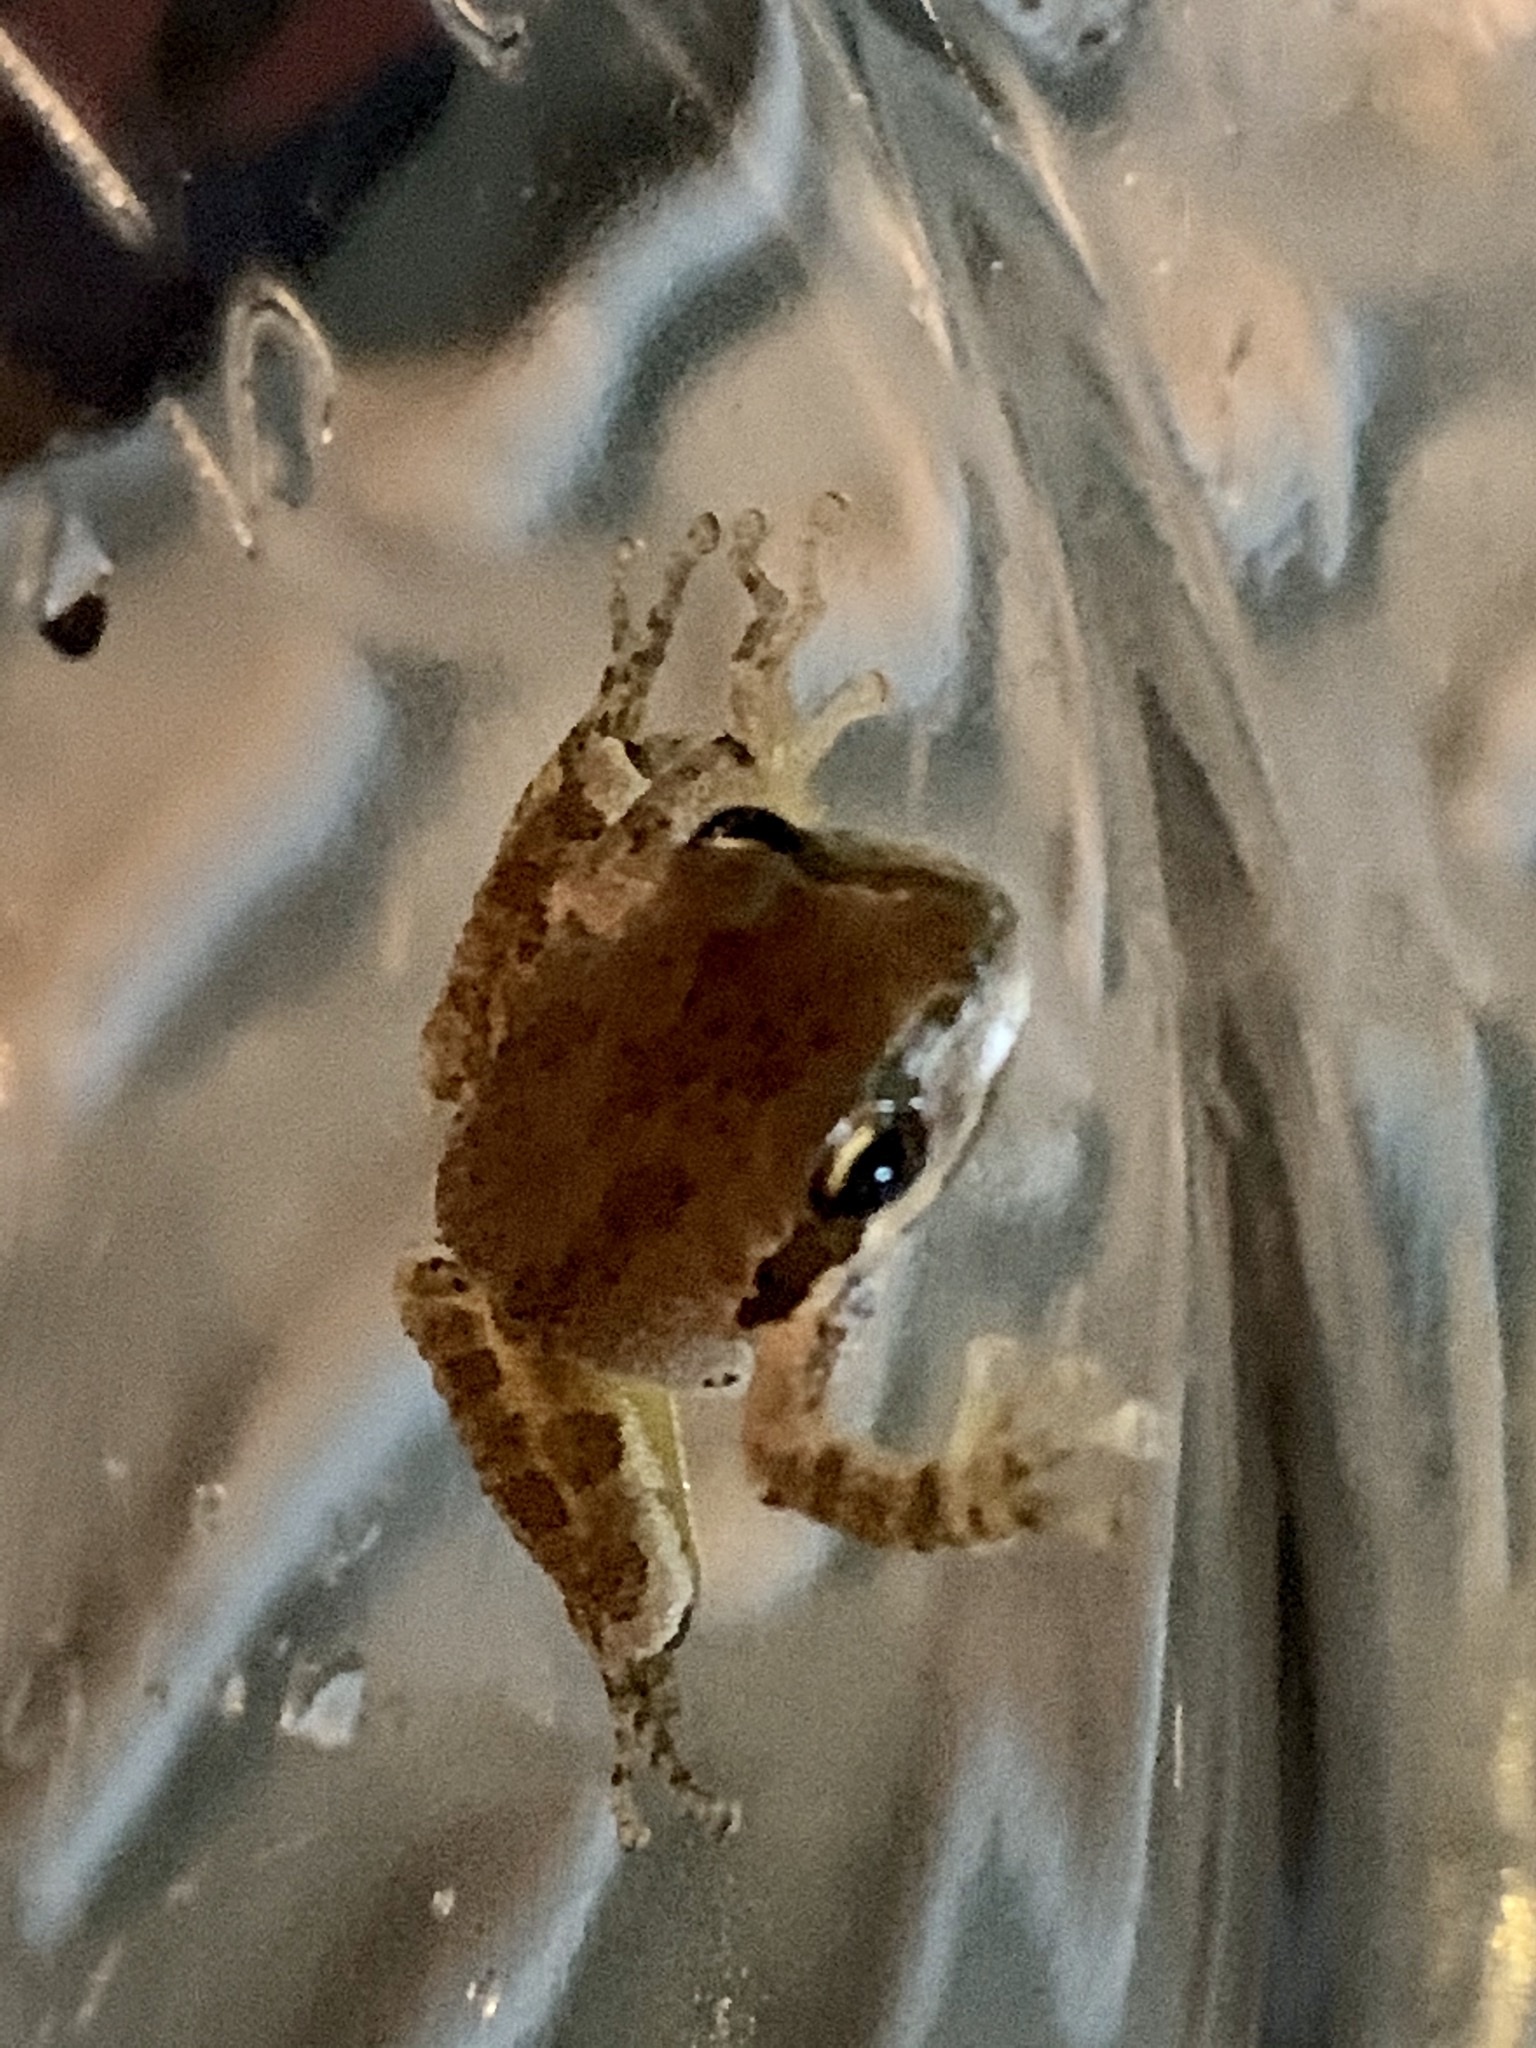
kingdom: Animalia
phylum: Chordata
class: Amphibia
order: Anura
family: Hylidae
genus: Pseudacris
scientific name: Pseudacris regilla
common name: Pacific chorus frog
